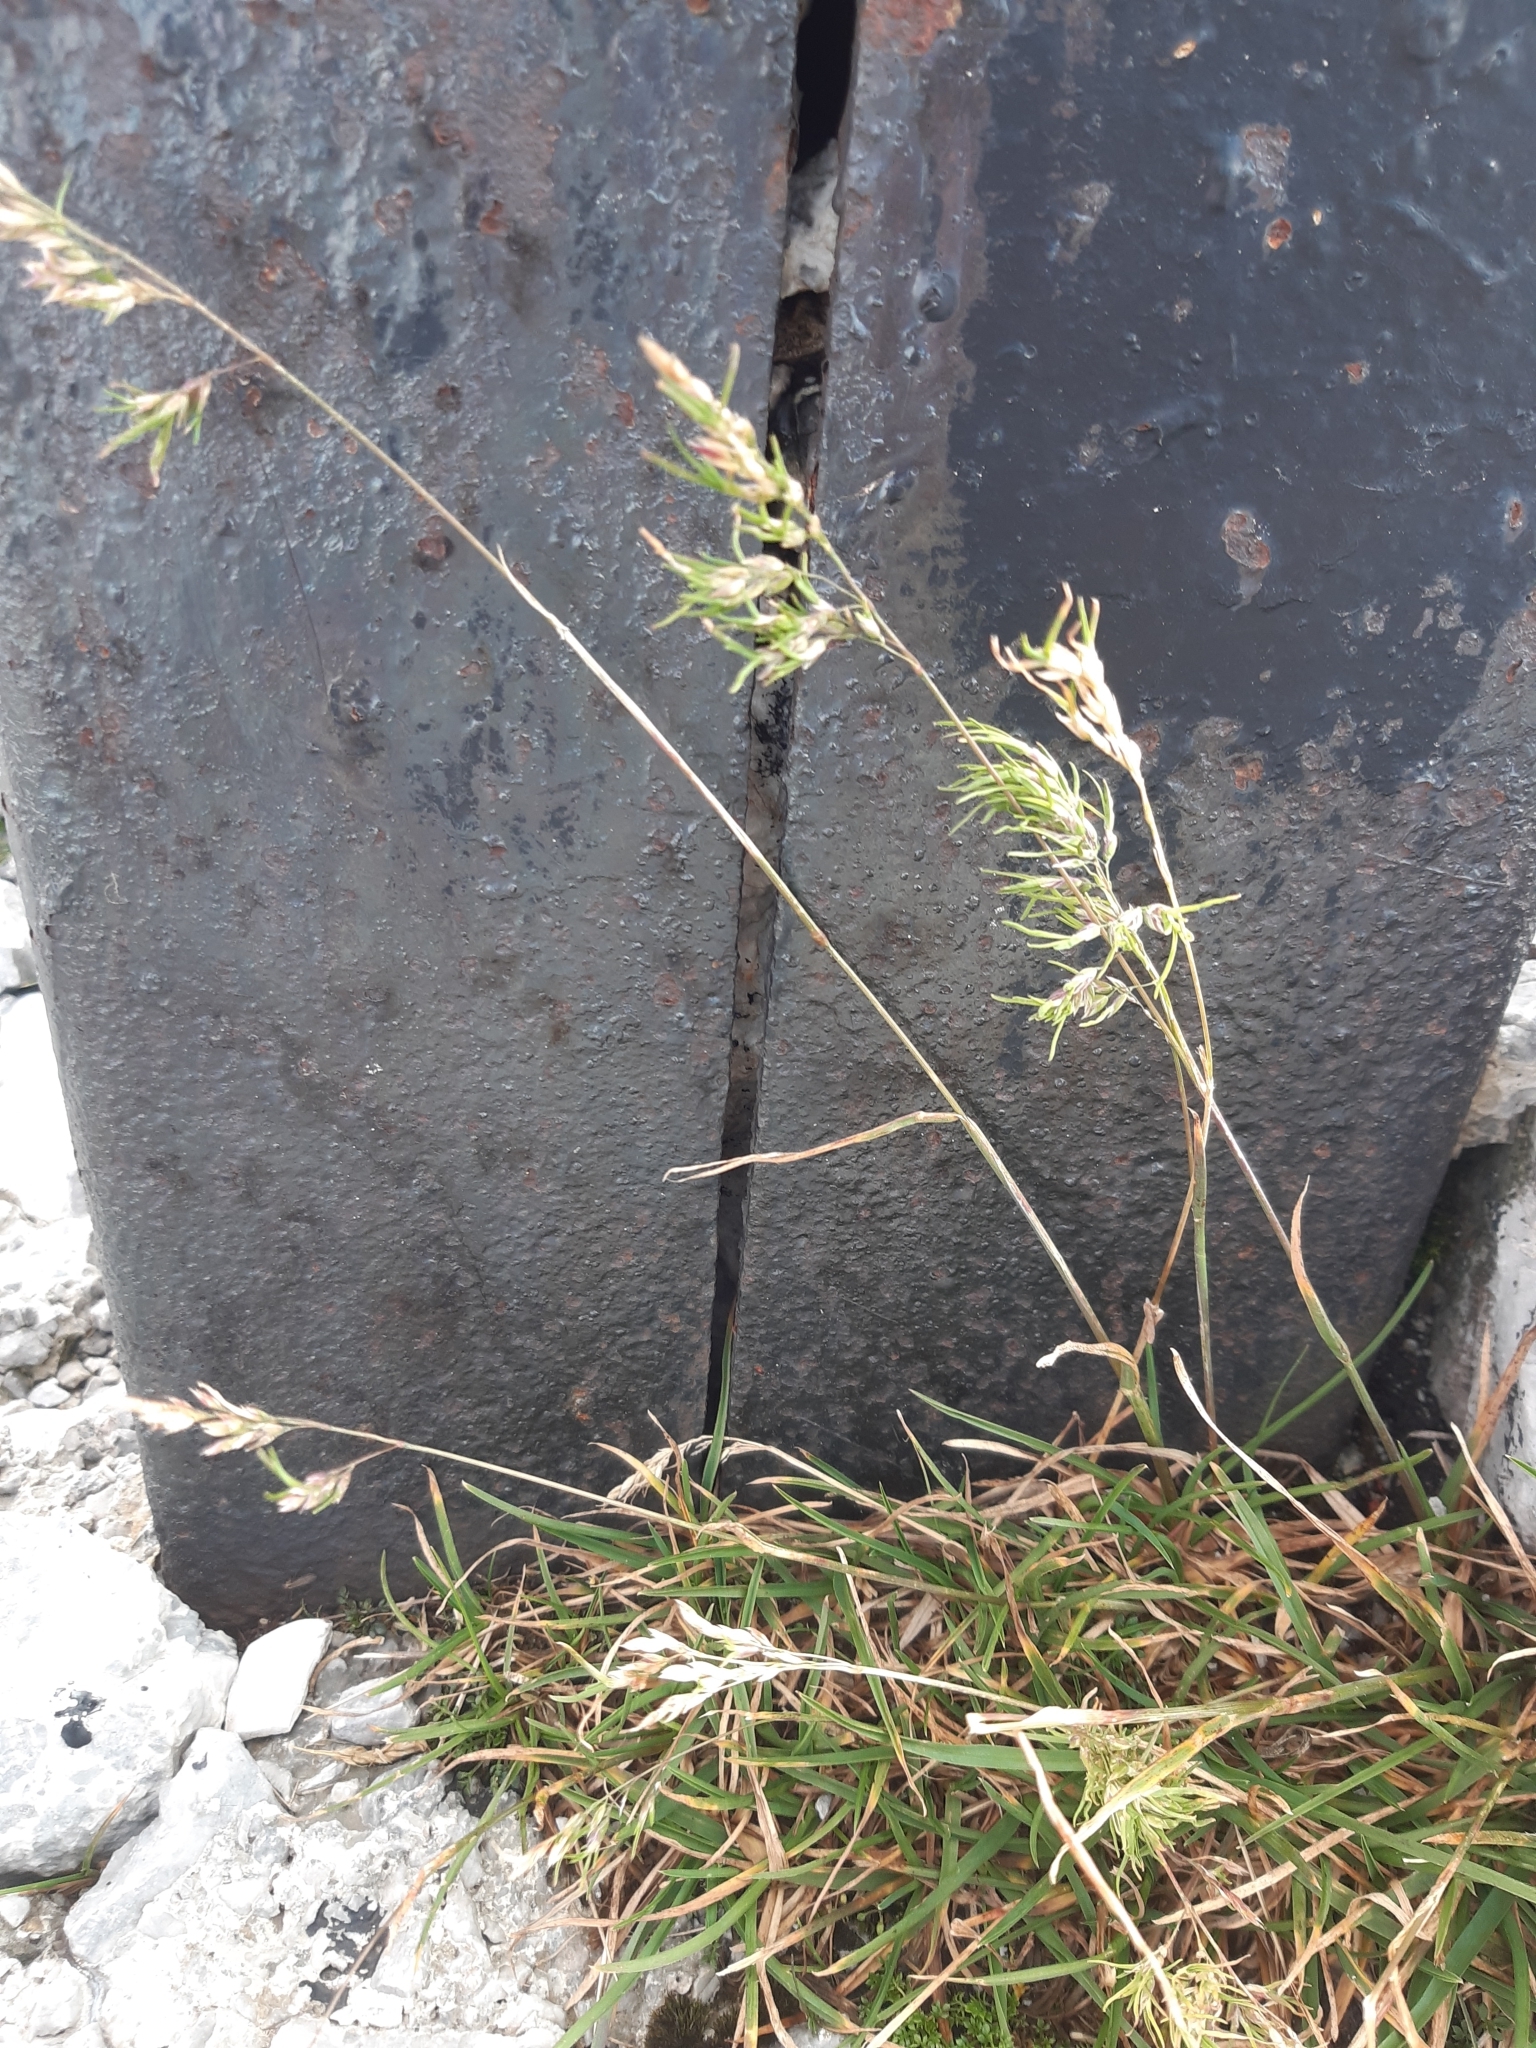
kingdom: Plantae
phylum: Tracheophyta
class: Liliopsida
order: Poales
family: Poaceae
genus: Poa
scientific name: Poa alpina
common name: Alpine bluegrass
